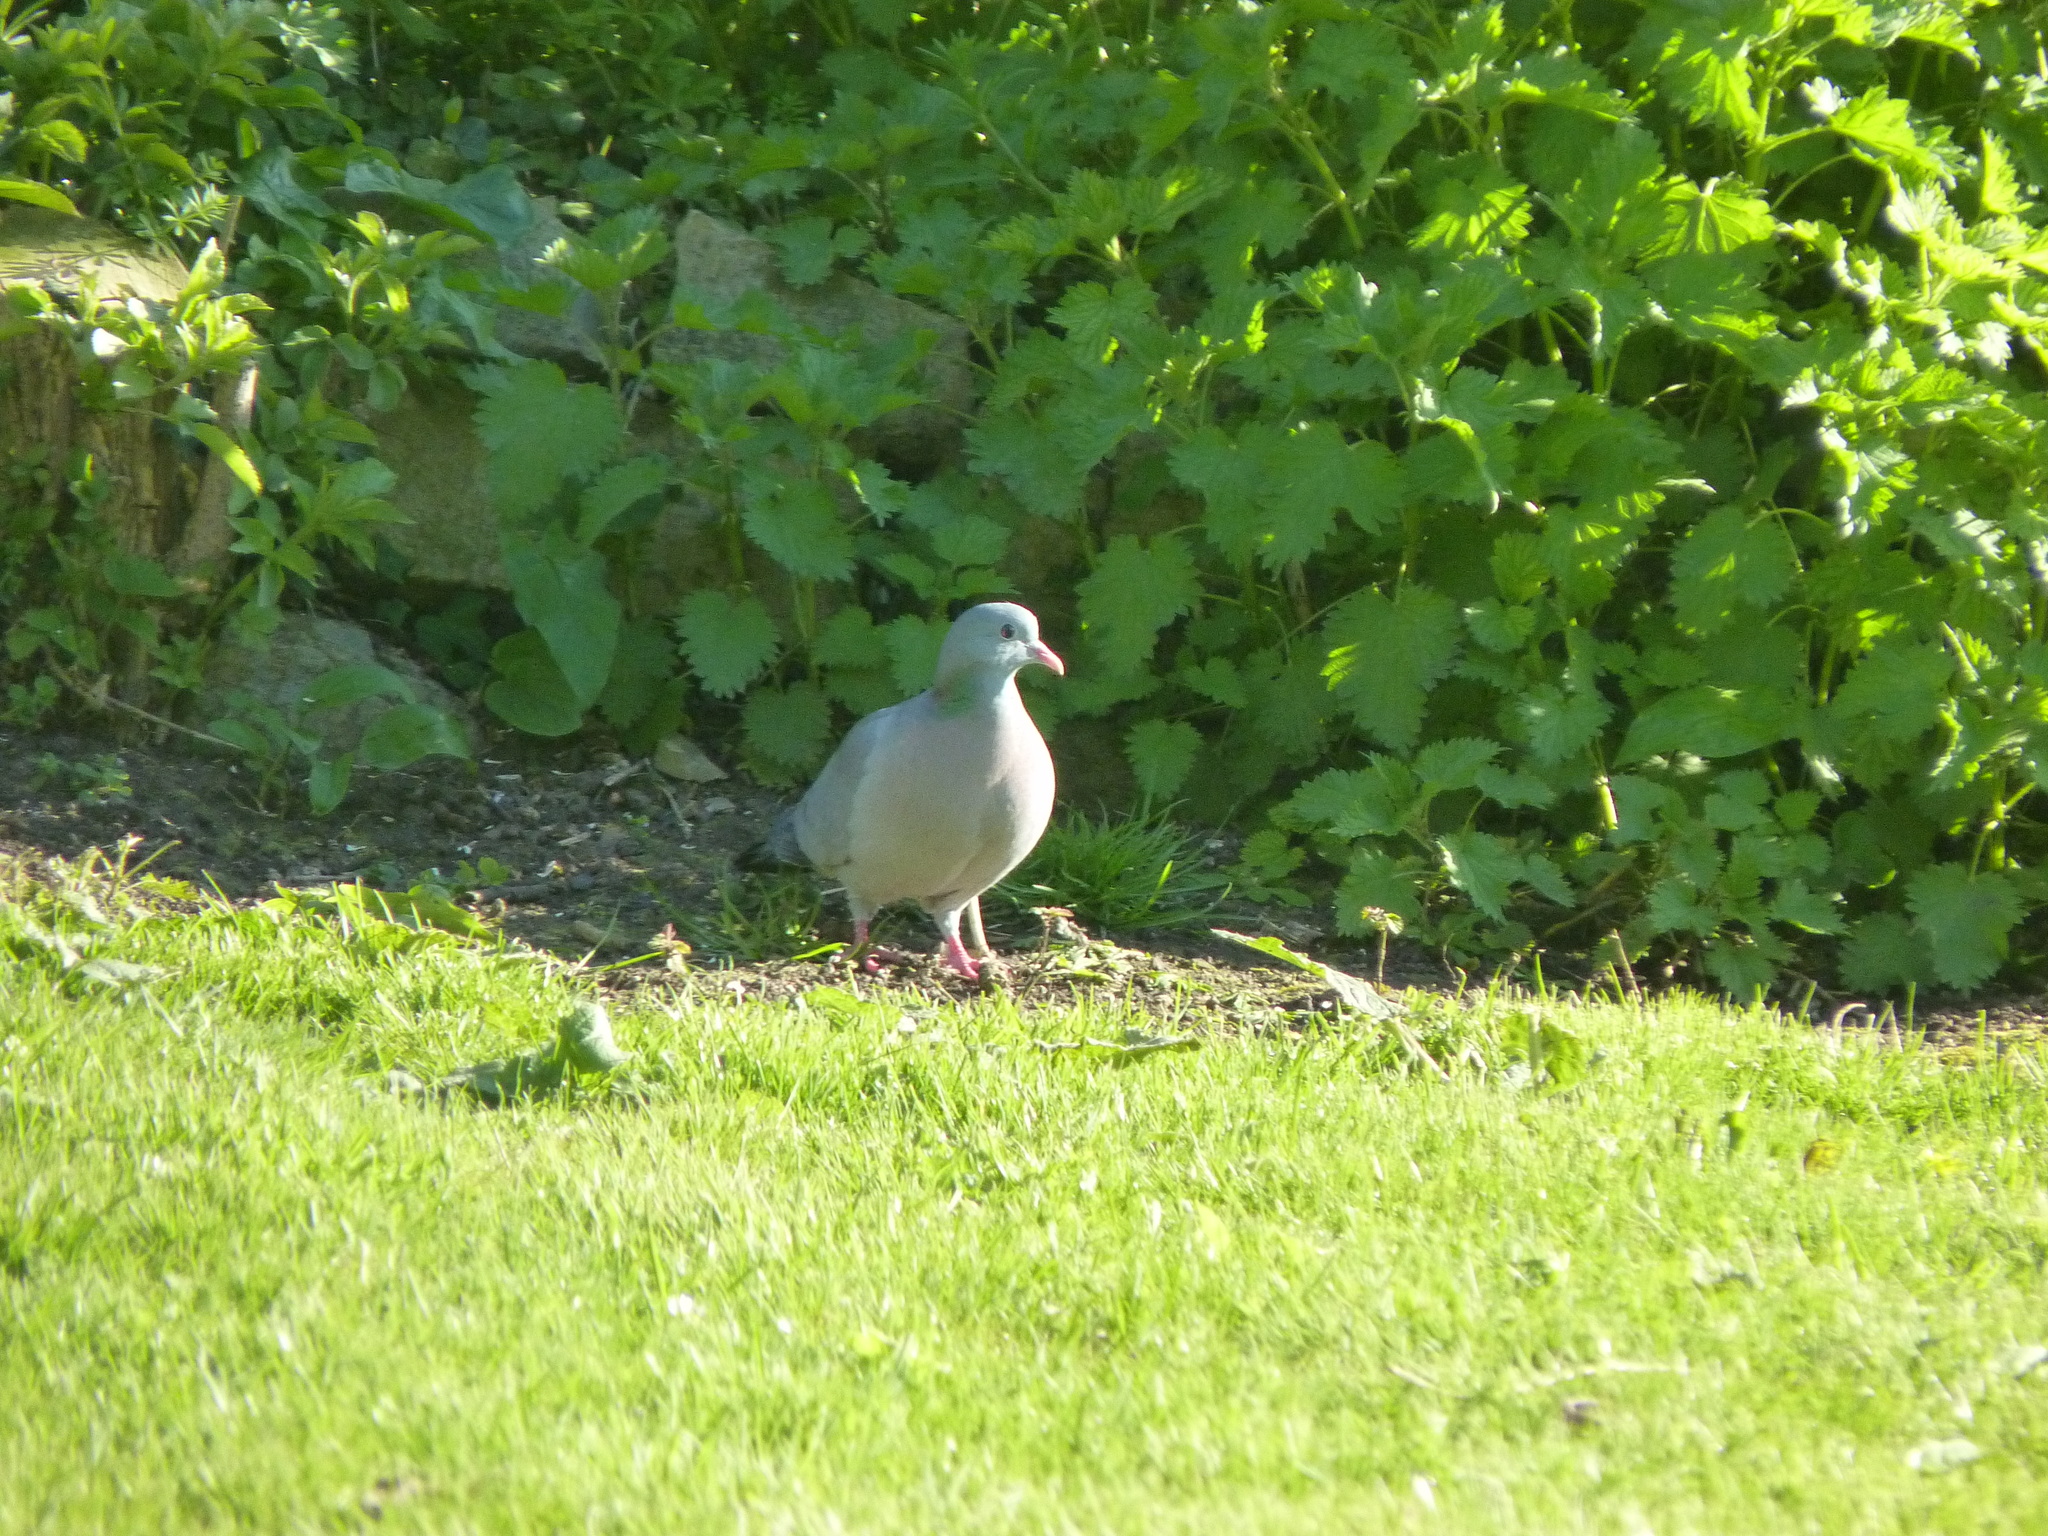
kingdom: Animalia
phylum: Chordata
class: Aves
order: Columbiformes
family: Columbidae
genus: Columba
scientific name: Columba oenas
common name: Stock dove
